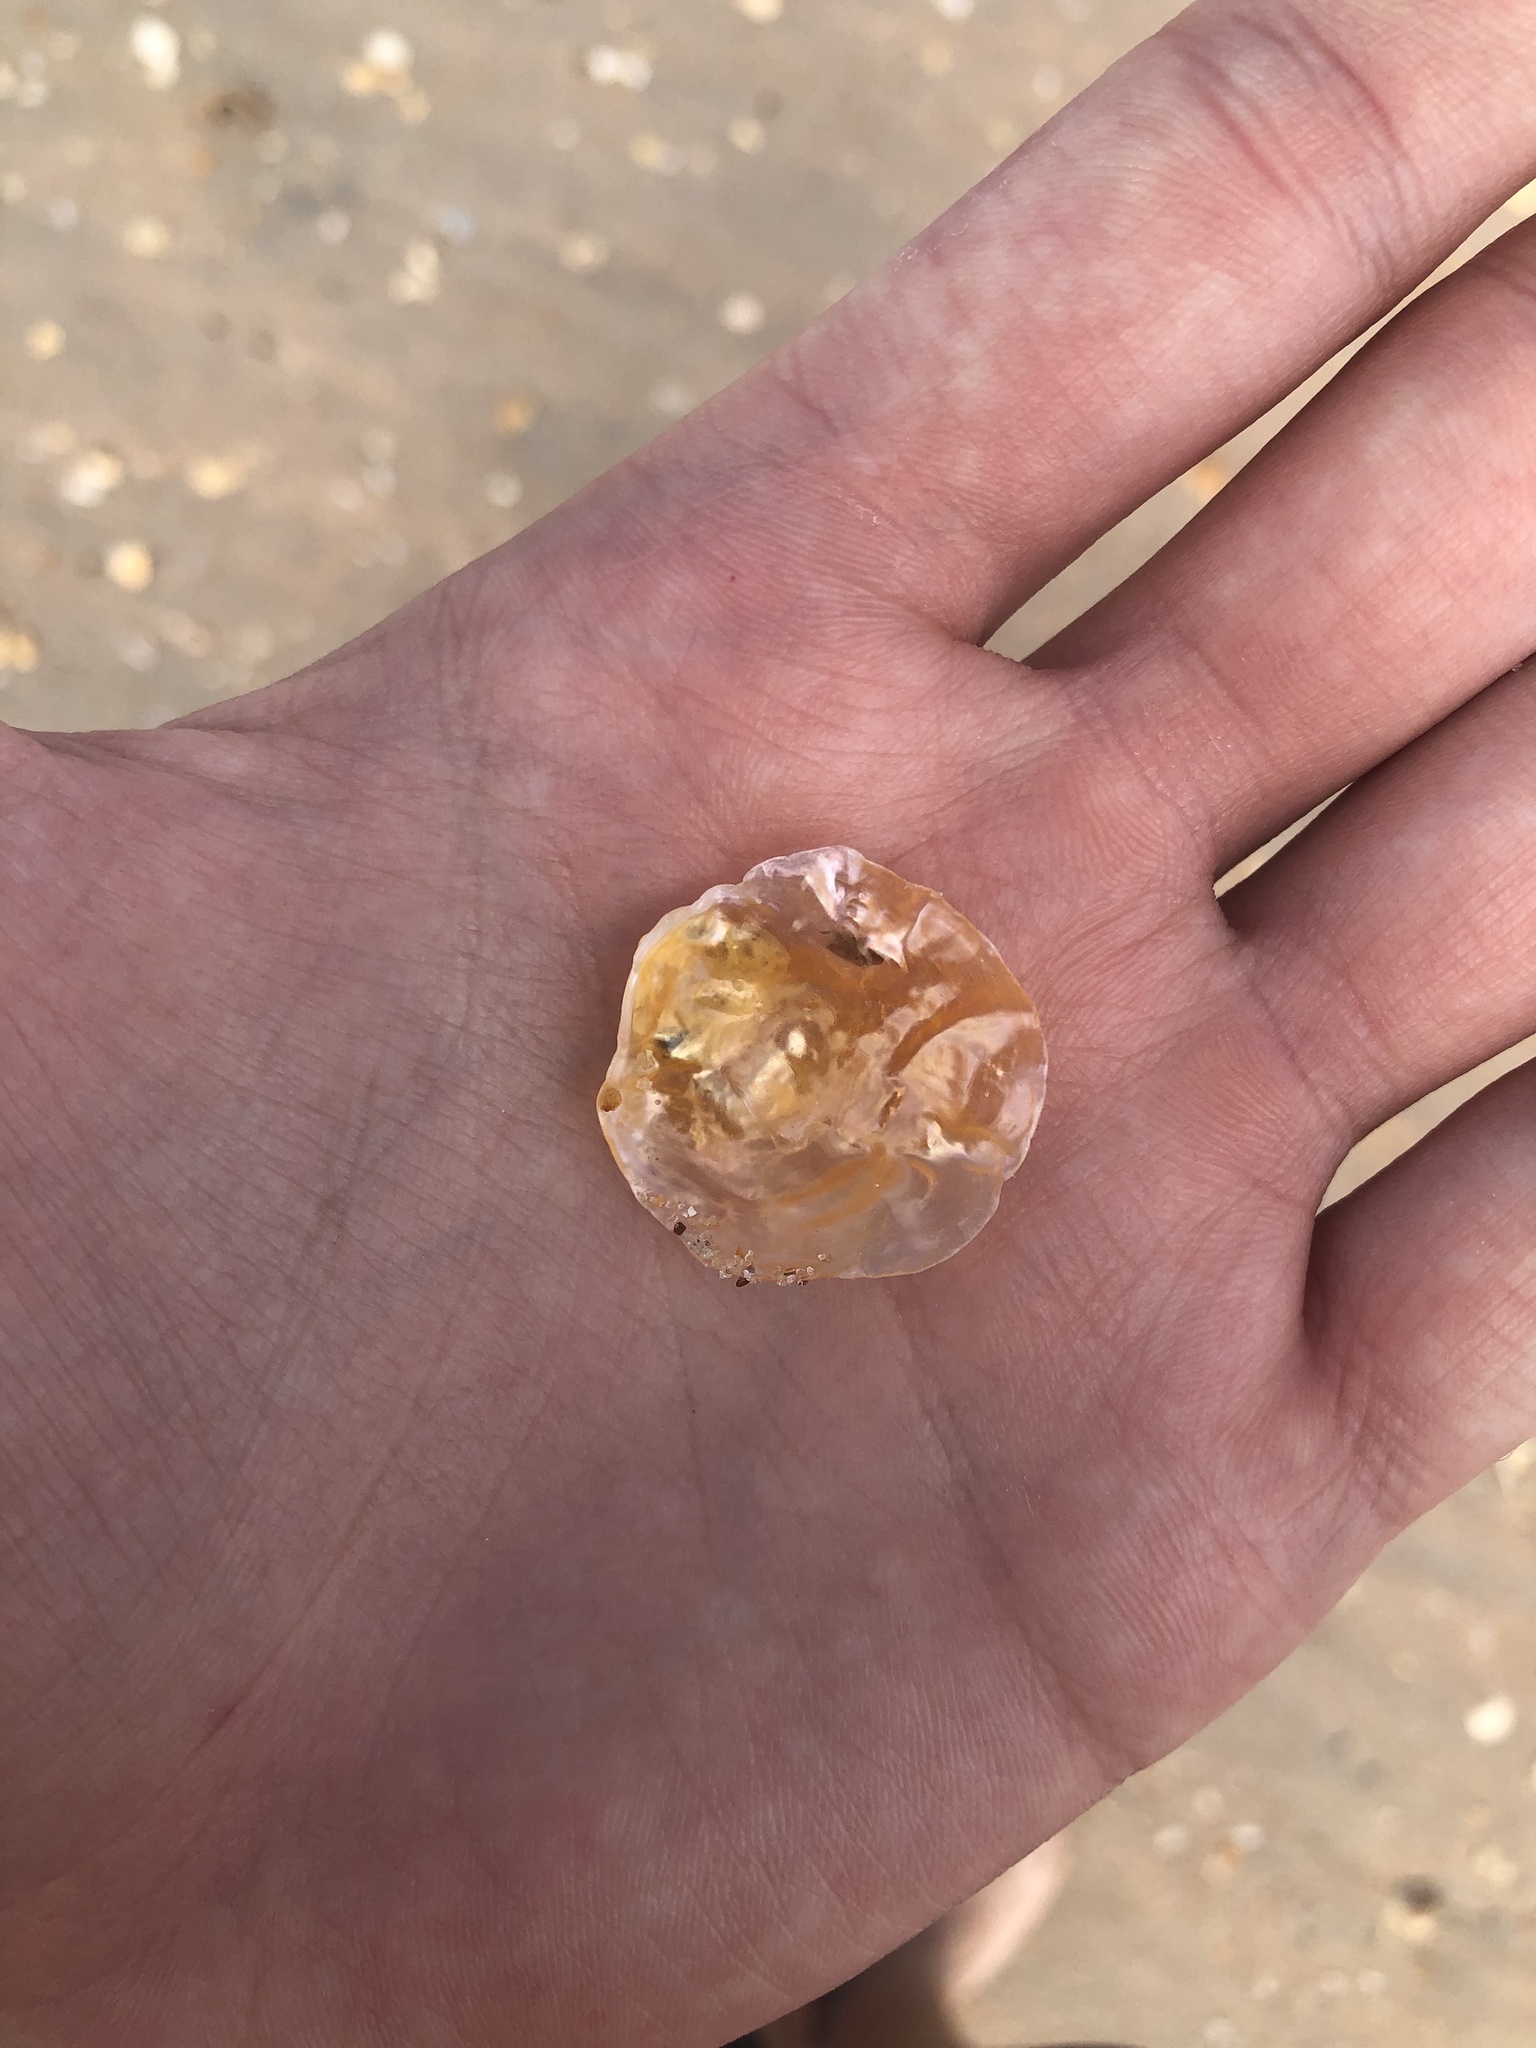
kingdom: Animalia
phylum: Mollusca
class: Bivalvia
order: Pectinida
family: Anomiidae
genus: Anomia
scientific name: Anomia simplex
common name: Common jingle shell
